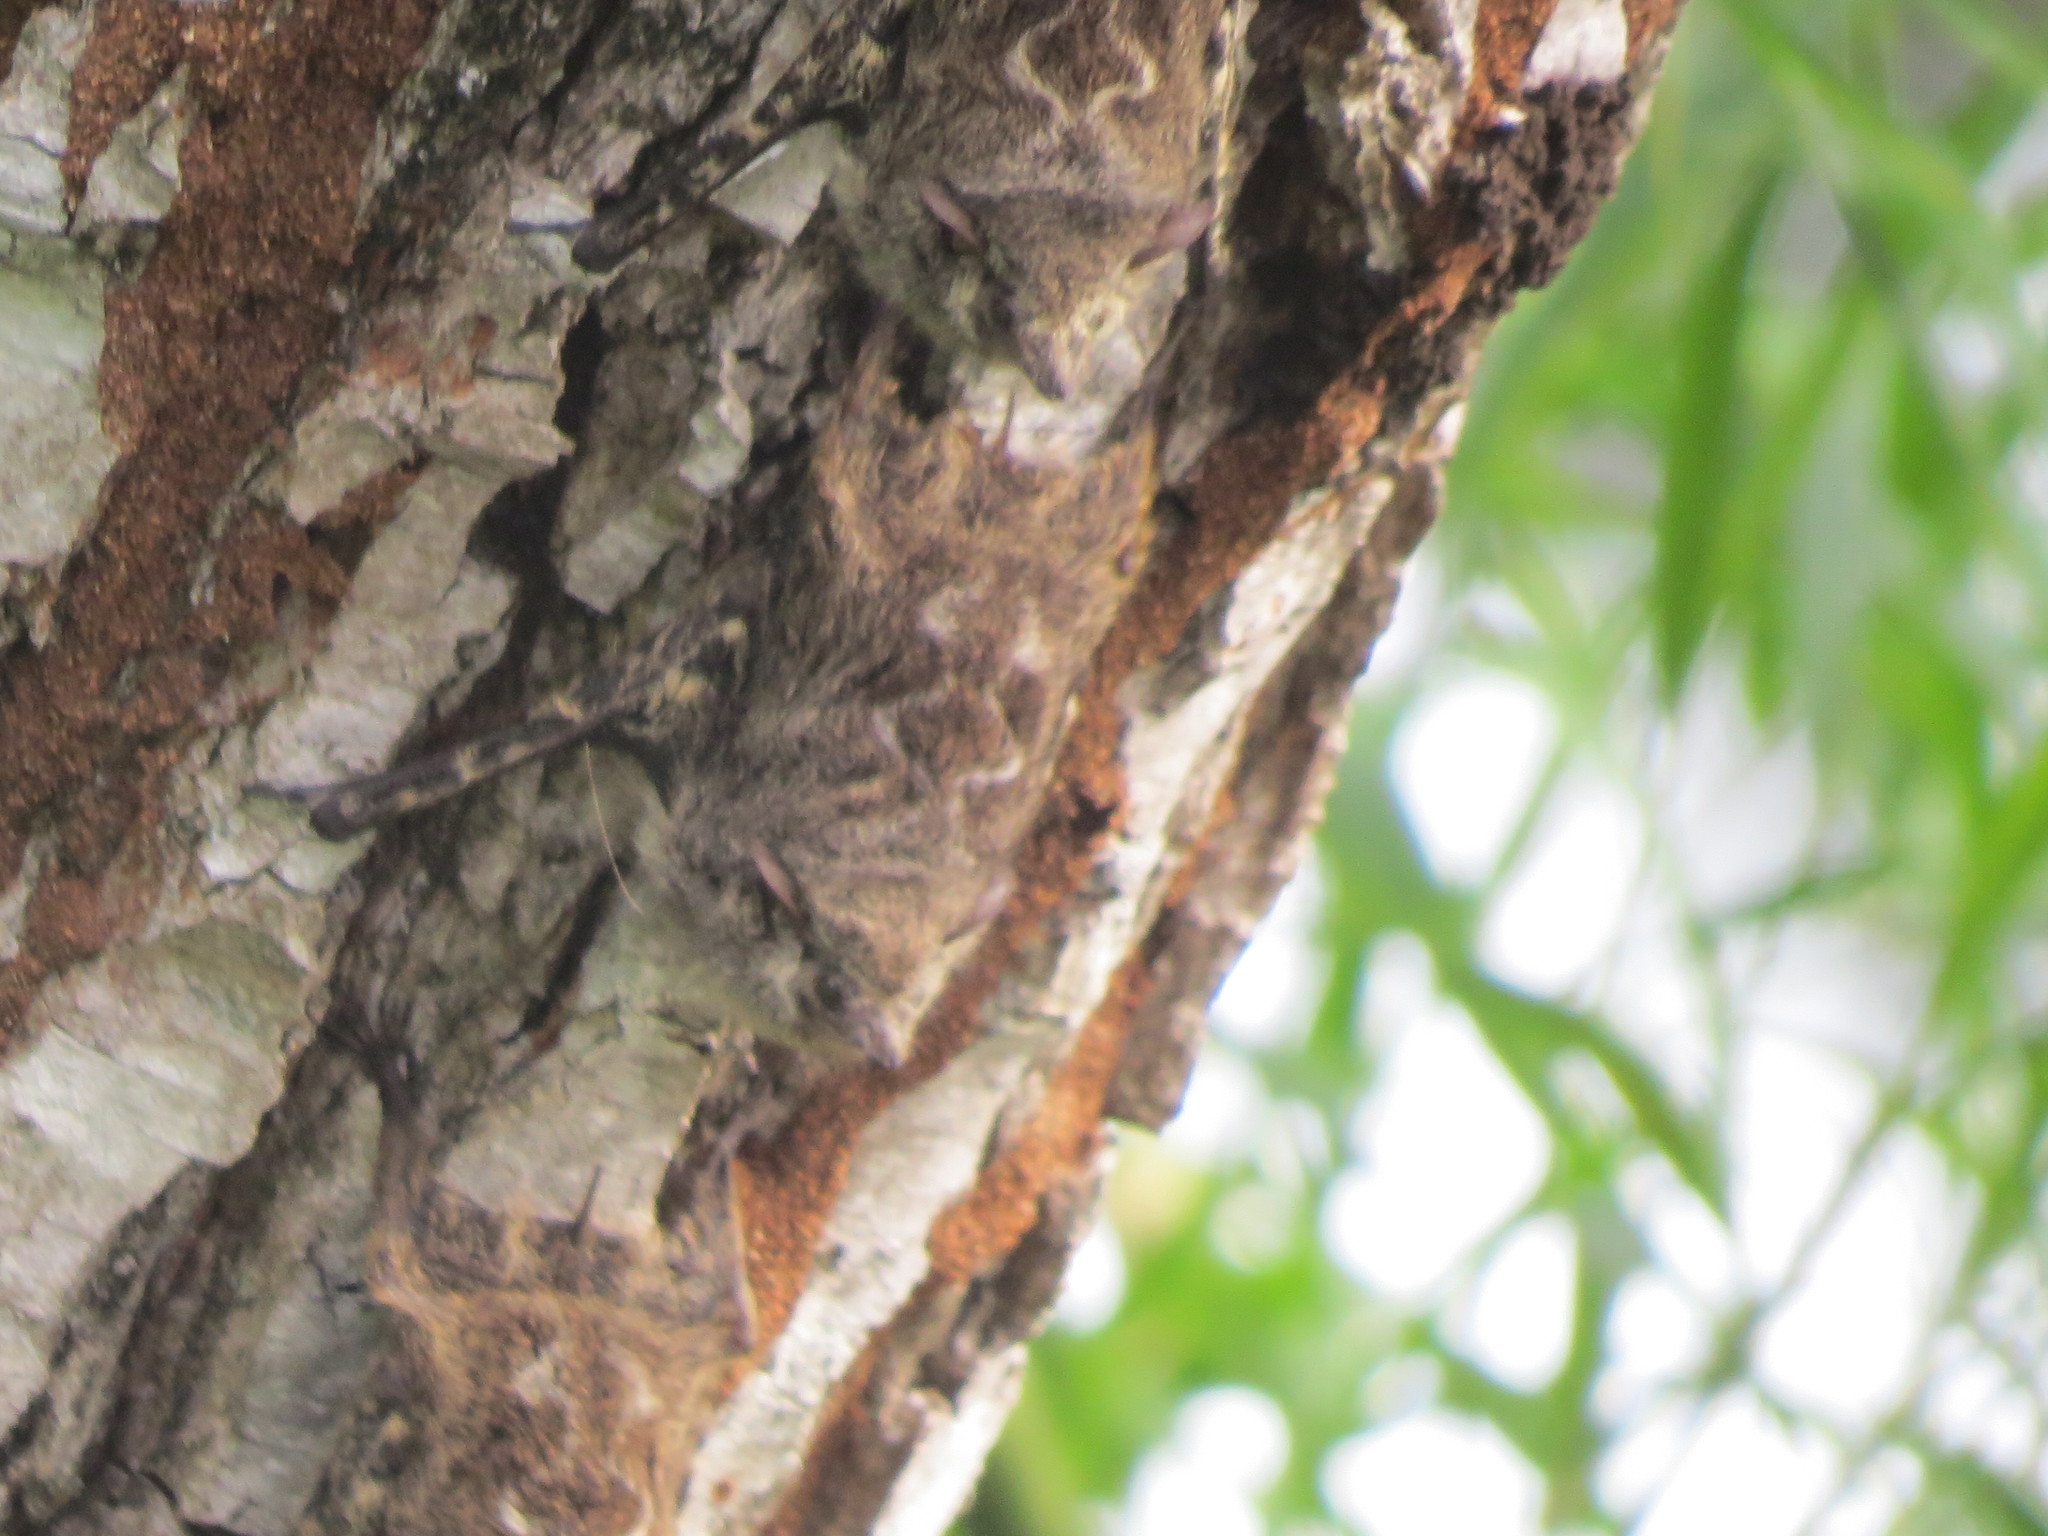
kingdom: Animalia
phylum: Chordata
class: Mammalia
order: Chiroptera
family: Emballonuridae
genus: Rhynchonycteris
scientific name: Rhynchonycteris naso
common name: Proboscis bat
